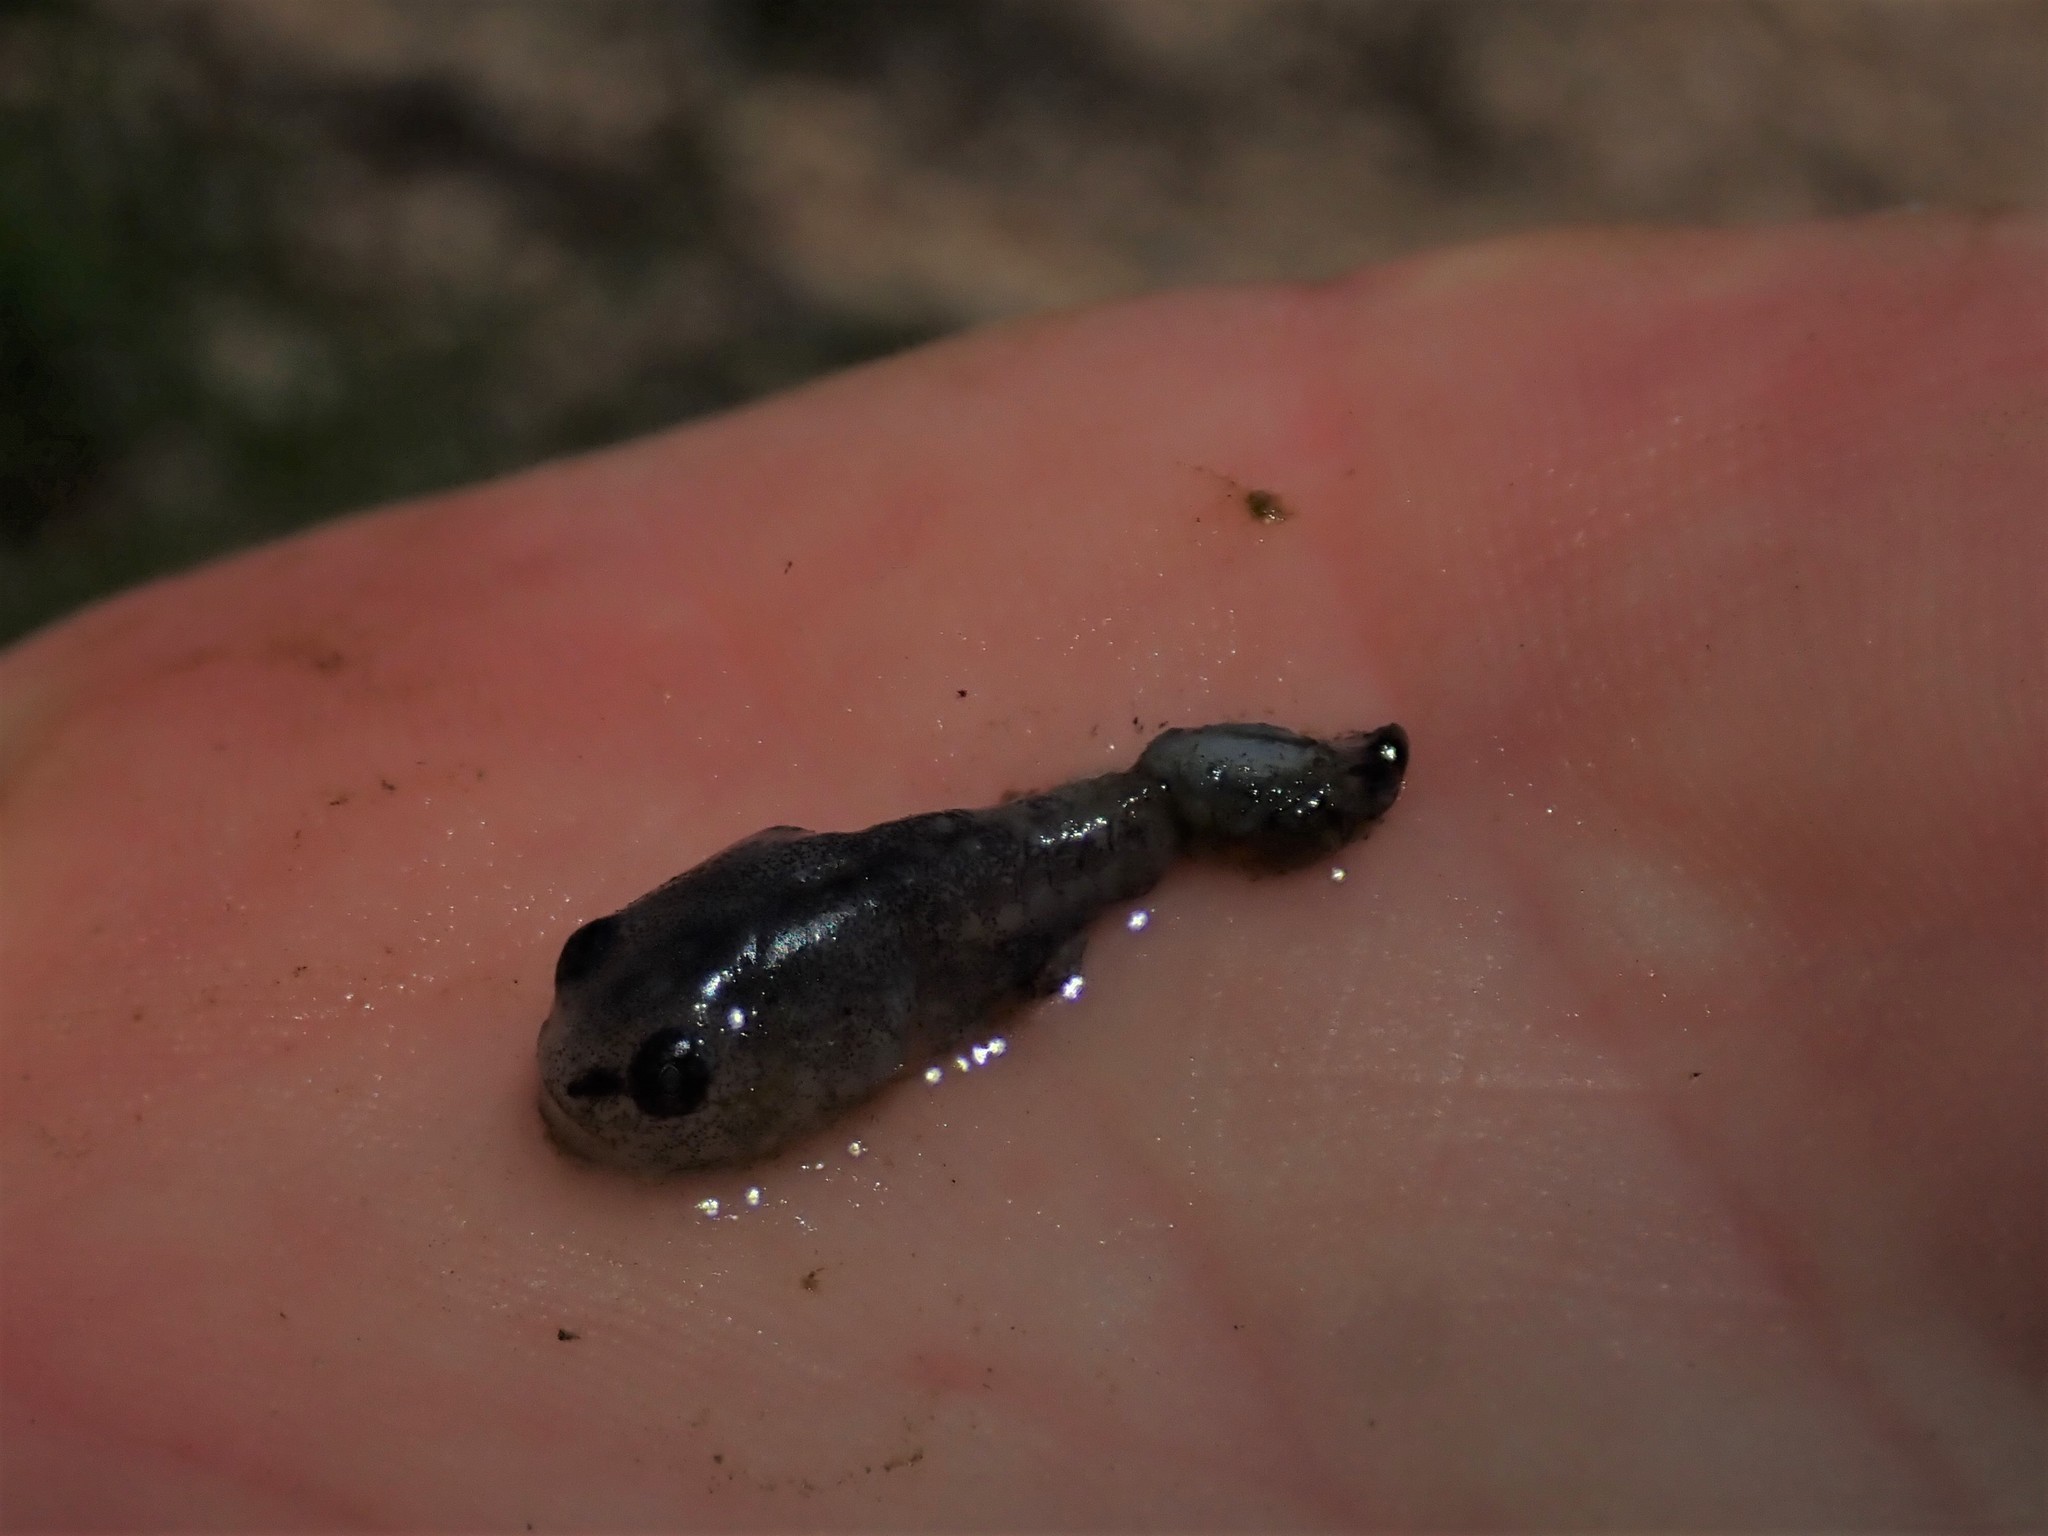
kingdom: Animalia
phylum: Chordata
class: Amphibia
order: Caudata
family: Ambystomatidae
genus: Ambystoma
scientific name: Ambystoma opacum
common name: Marbled salamander
